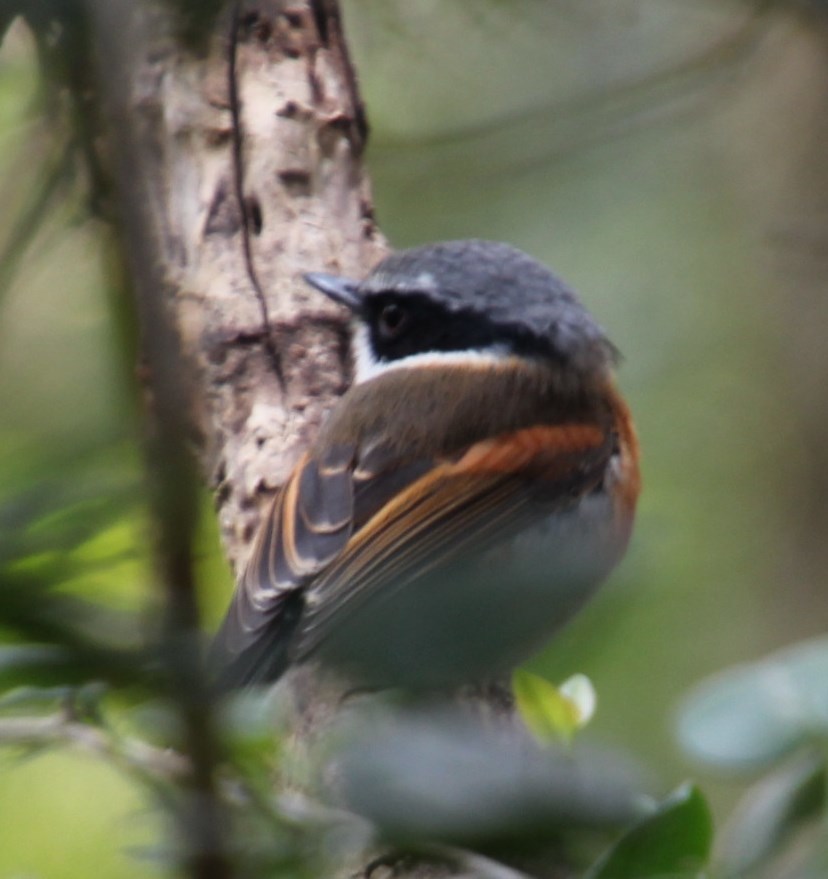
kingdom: Animalia
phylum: Chordata
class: Aves
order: Passeriformes
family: Platysteiridae
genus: Batis
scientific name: Batis capensis
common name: Cape batis
